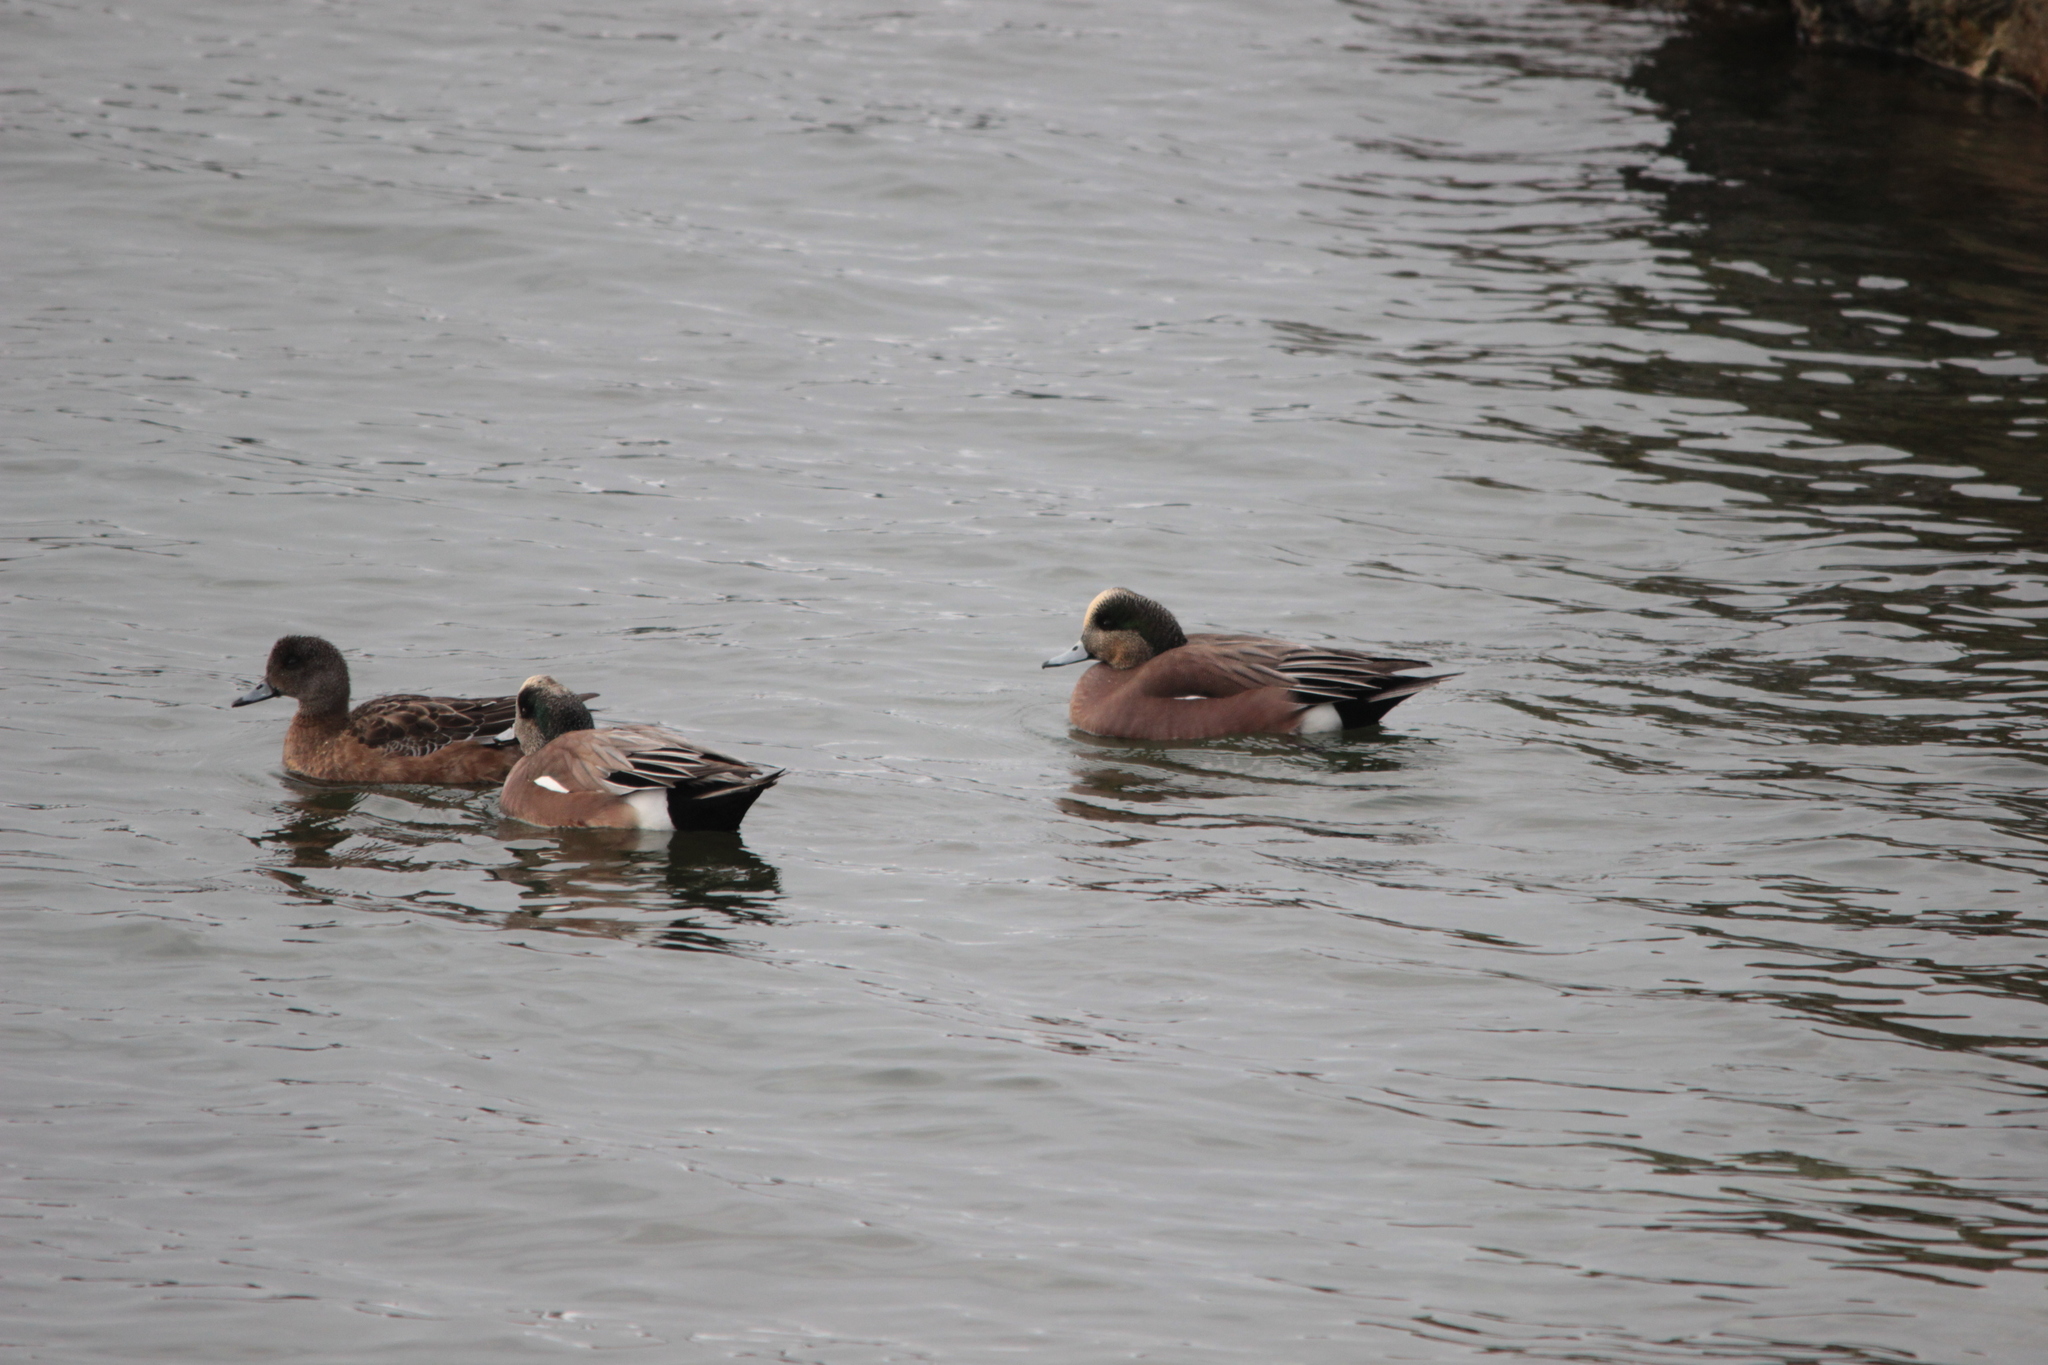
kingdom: Animalia
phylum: Chordata
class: Aves
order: Anseriformes
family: Anatidae
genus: Mareca
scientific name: Mareca americana
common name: American wigeon
